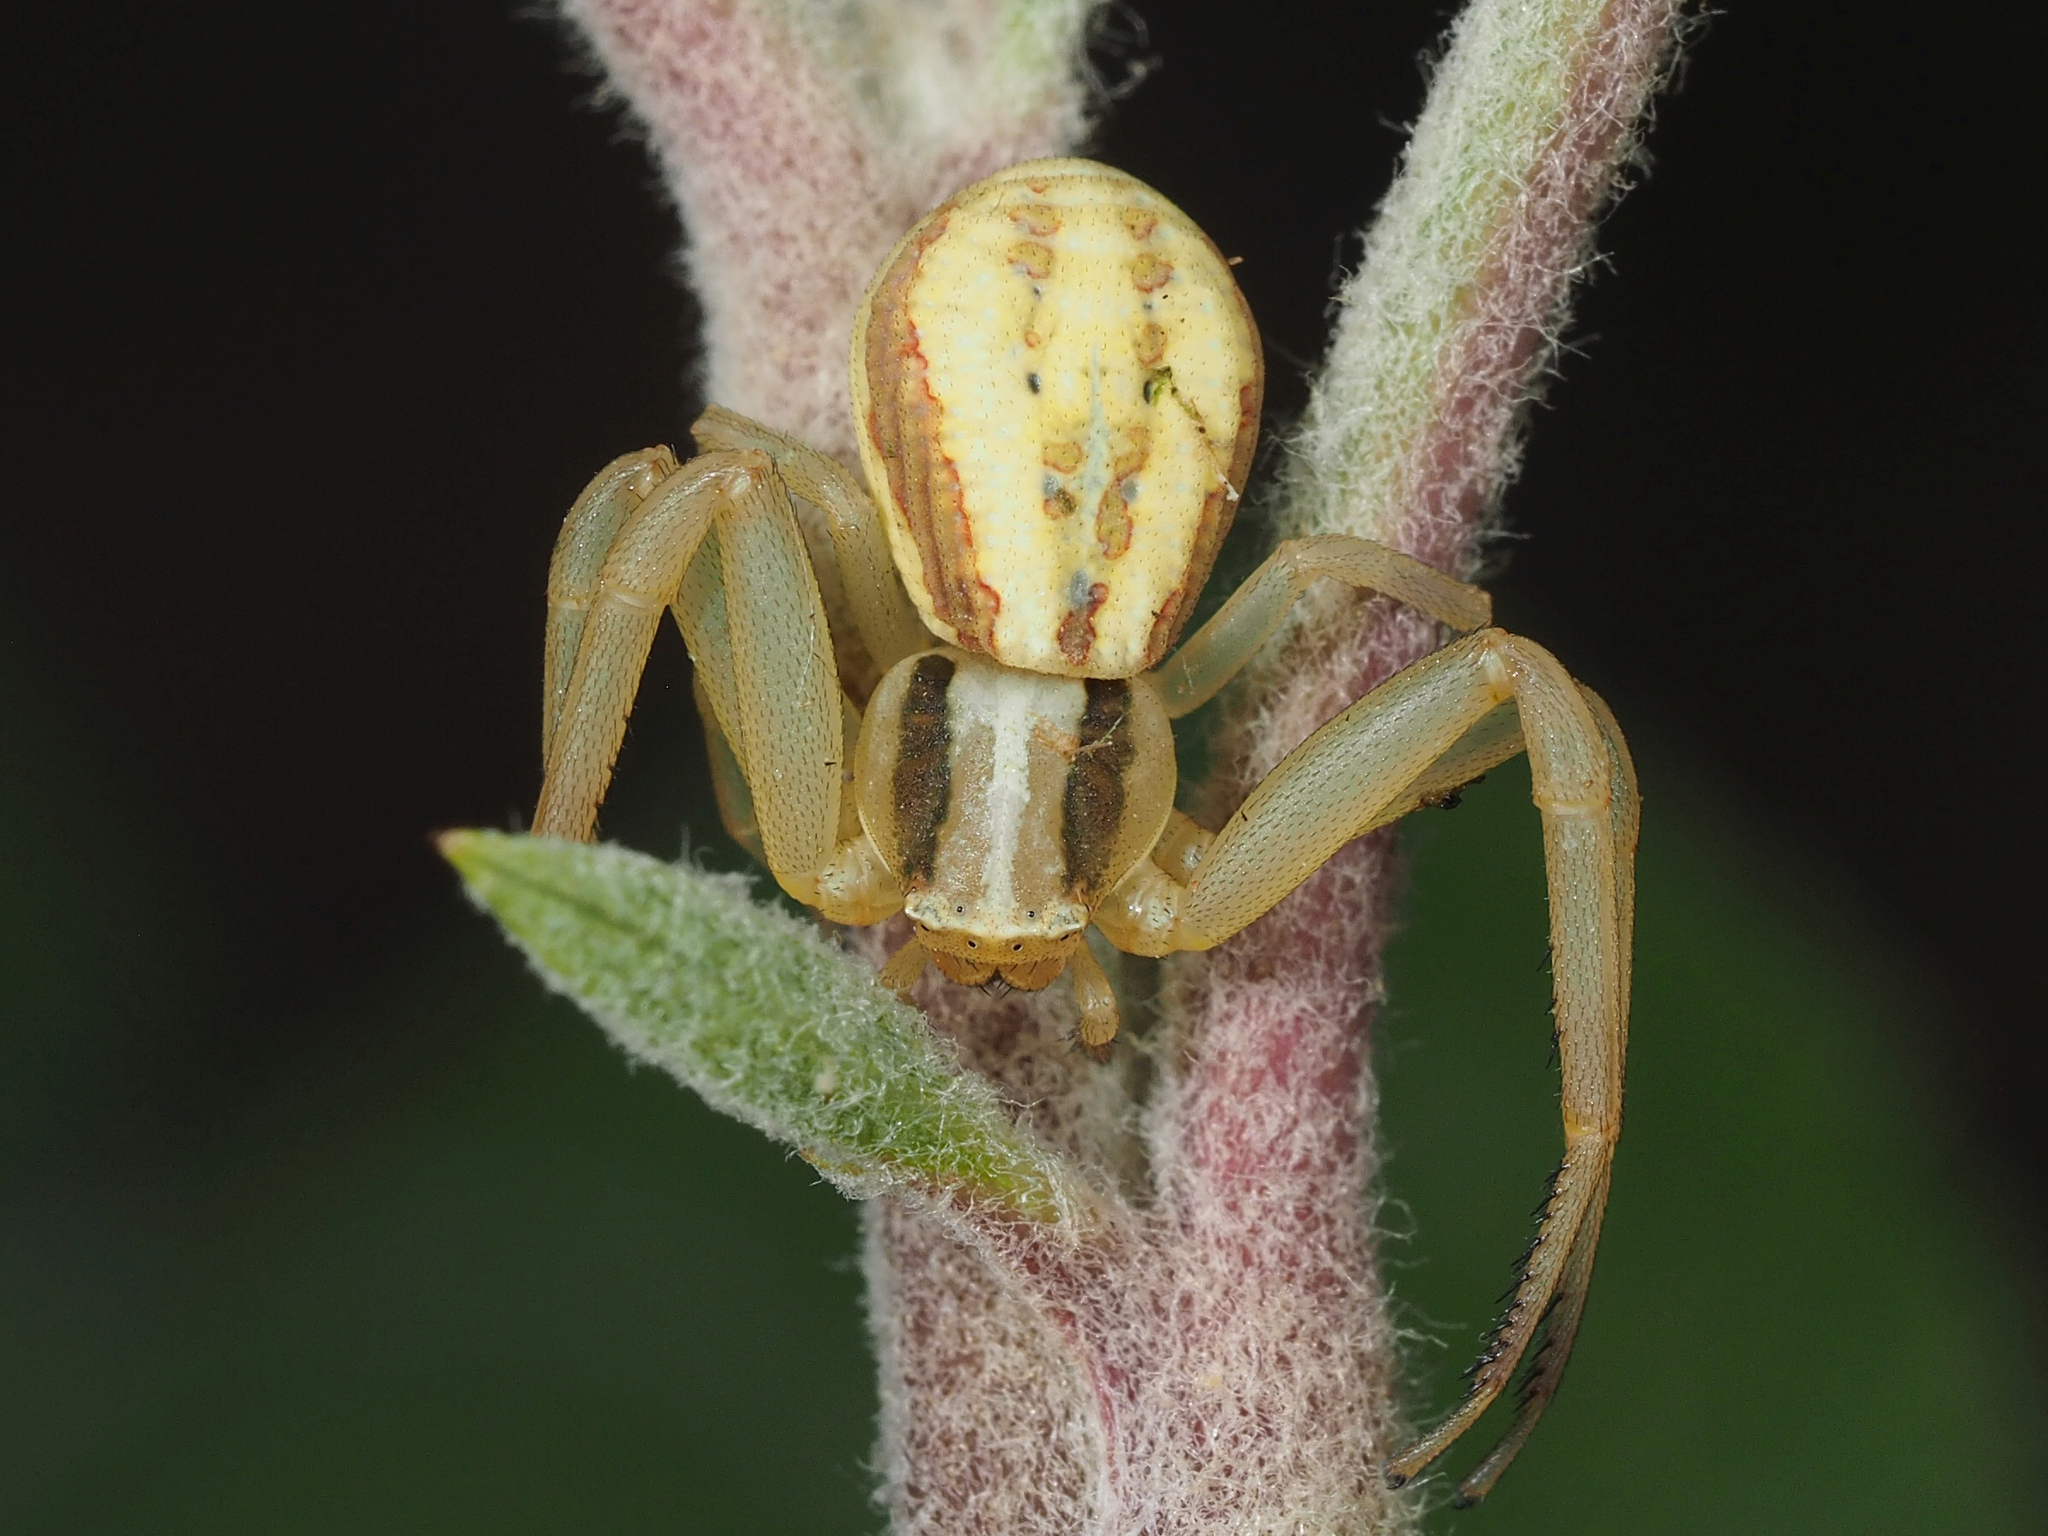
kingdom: Animalia
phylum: Arthropoda
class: Arachnida
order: Araneae
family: Thomisidae
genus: Runcinia
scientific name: Runcinia grammica
